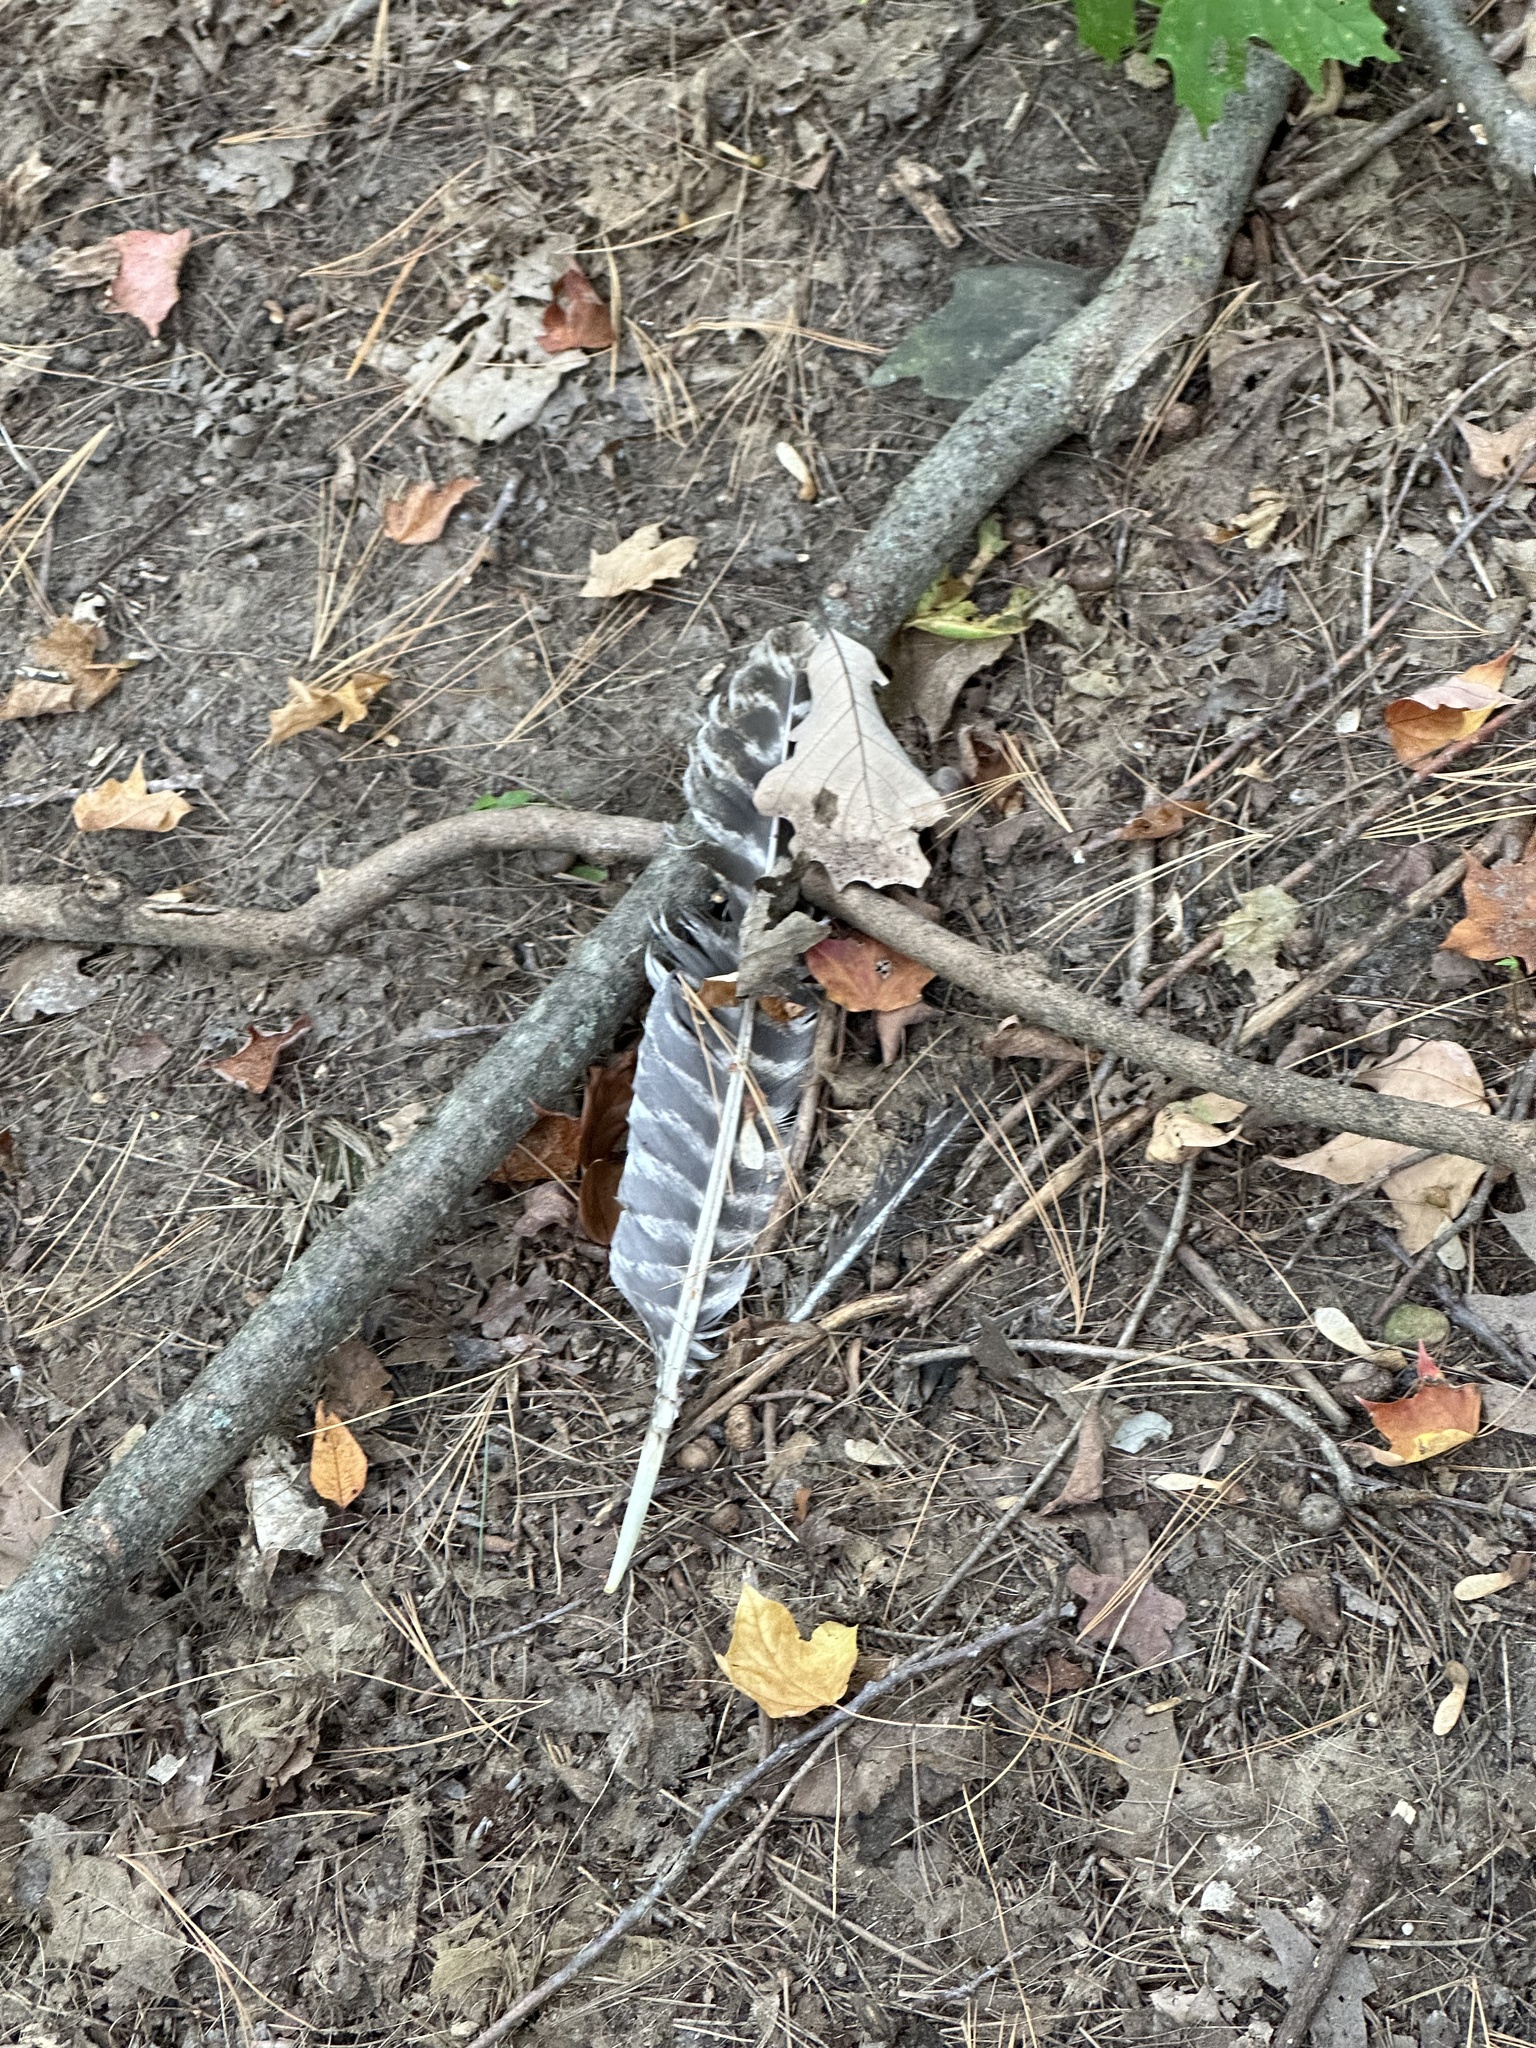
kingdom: Animalia
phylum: Chordata
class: Aves
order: Galliformes
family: Phasianidae
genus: Meleagris
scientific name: Meleagris gallopavo
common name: Wild turkey
